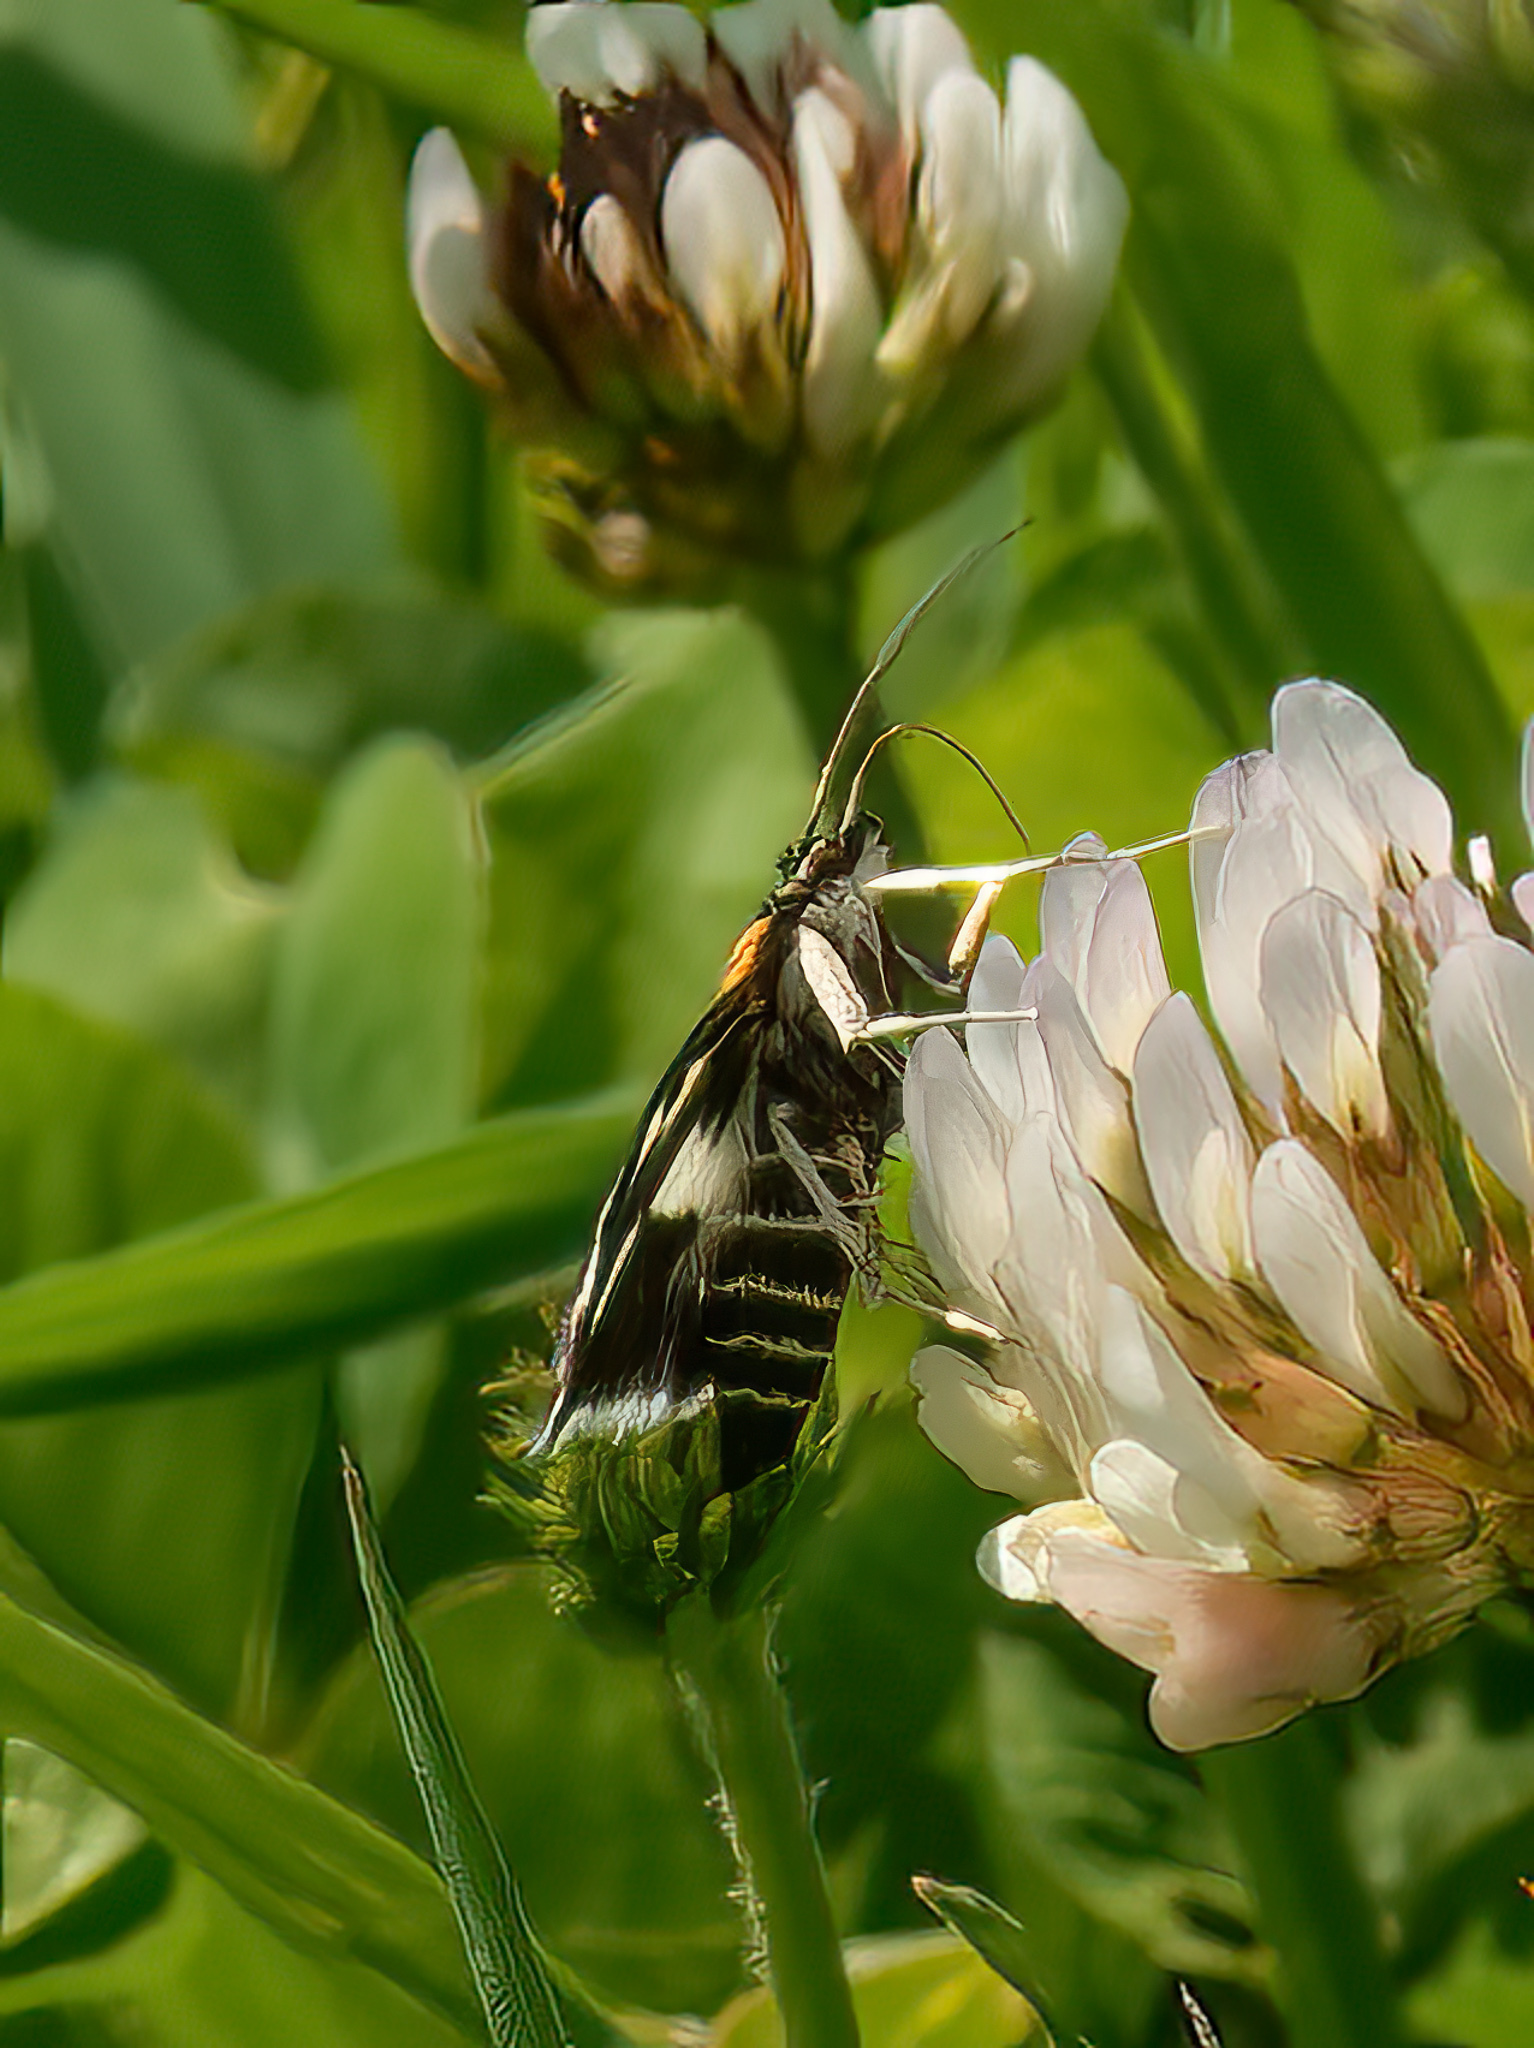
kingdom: Animalia
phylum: Arthropoda
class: Insecta
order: Lepidoptera
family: Crambidae
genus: Anania
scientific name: Anania funebris
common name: White-spotted sable moth
